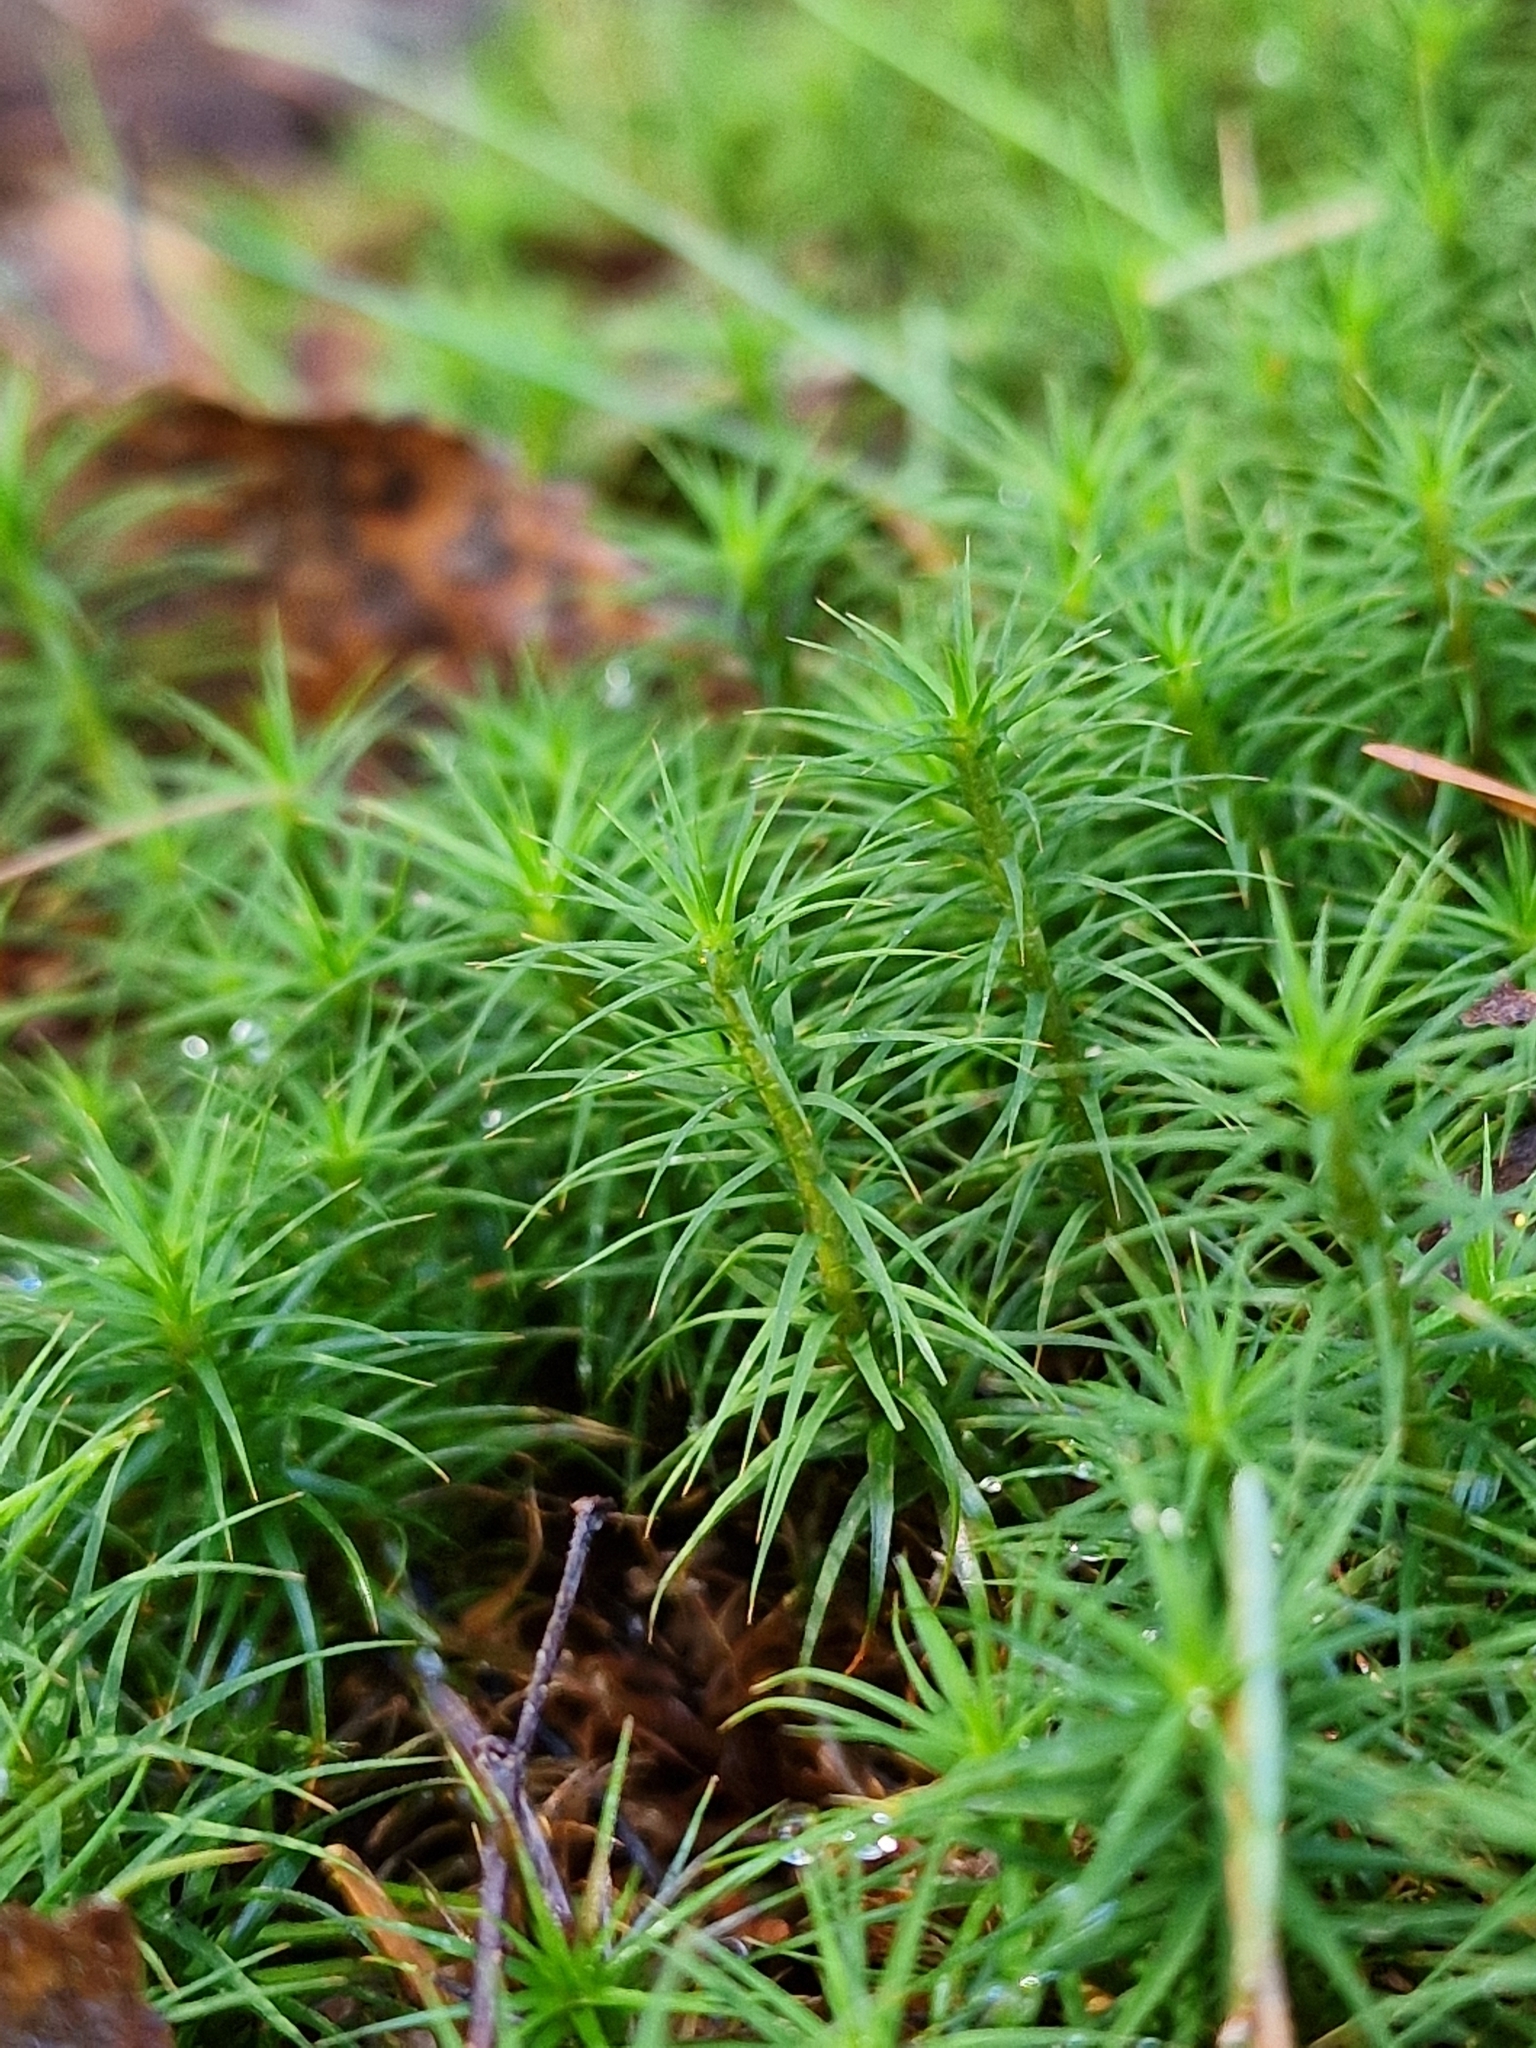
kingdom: Plantae
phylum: Bryophyta
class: Polytrichopsida
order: Polytrichales
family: Polytrichaceae
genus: Polytrichum
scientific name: Polytrichum formosum
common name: Bank haircap moss
